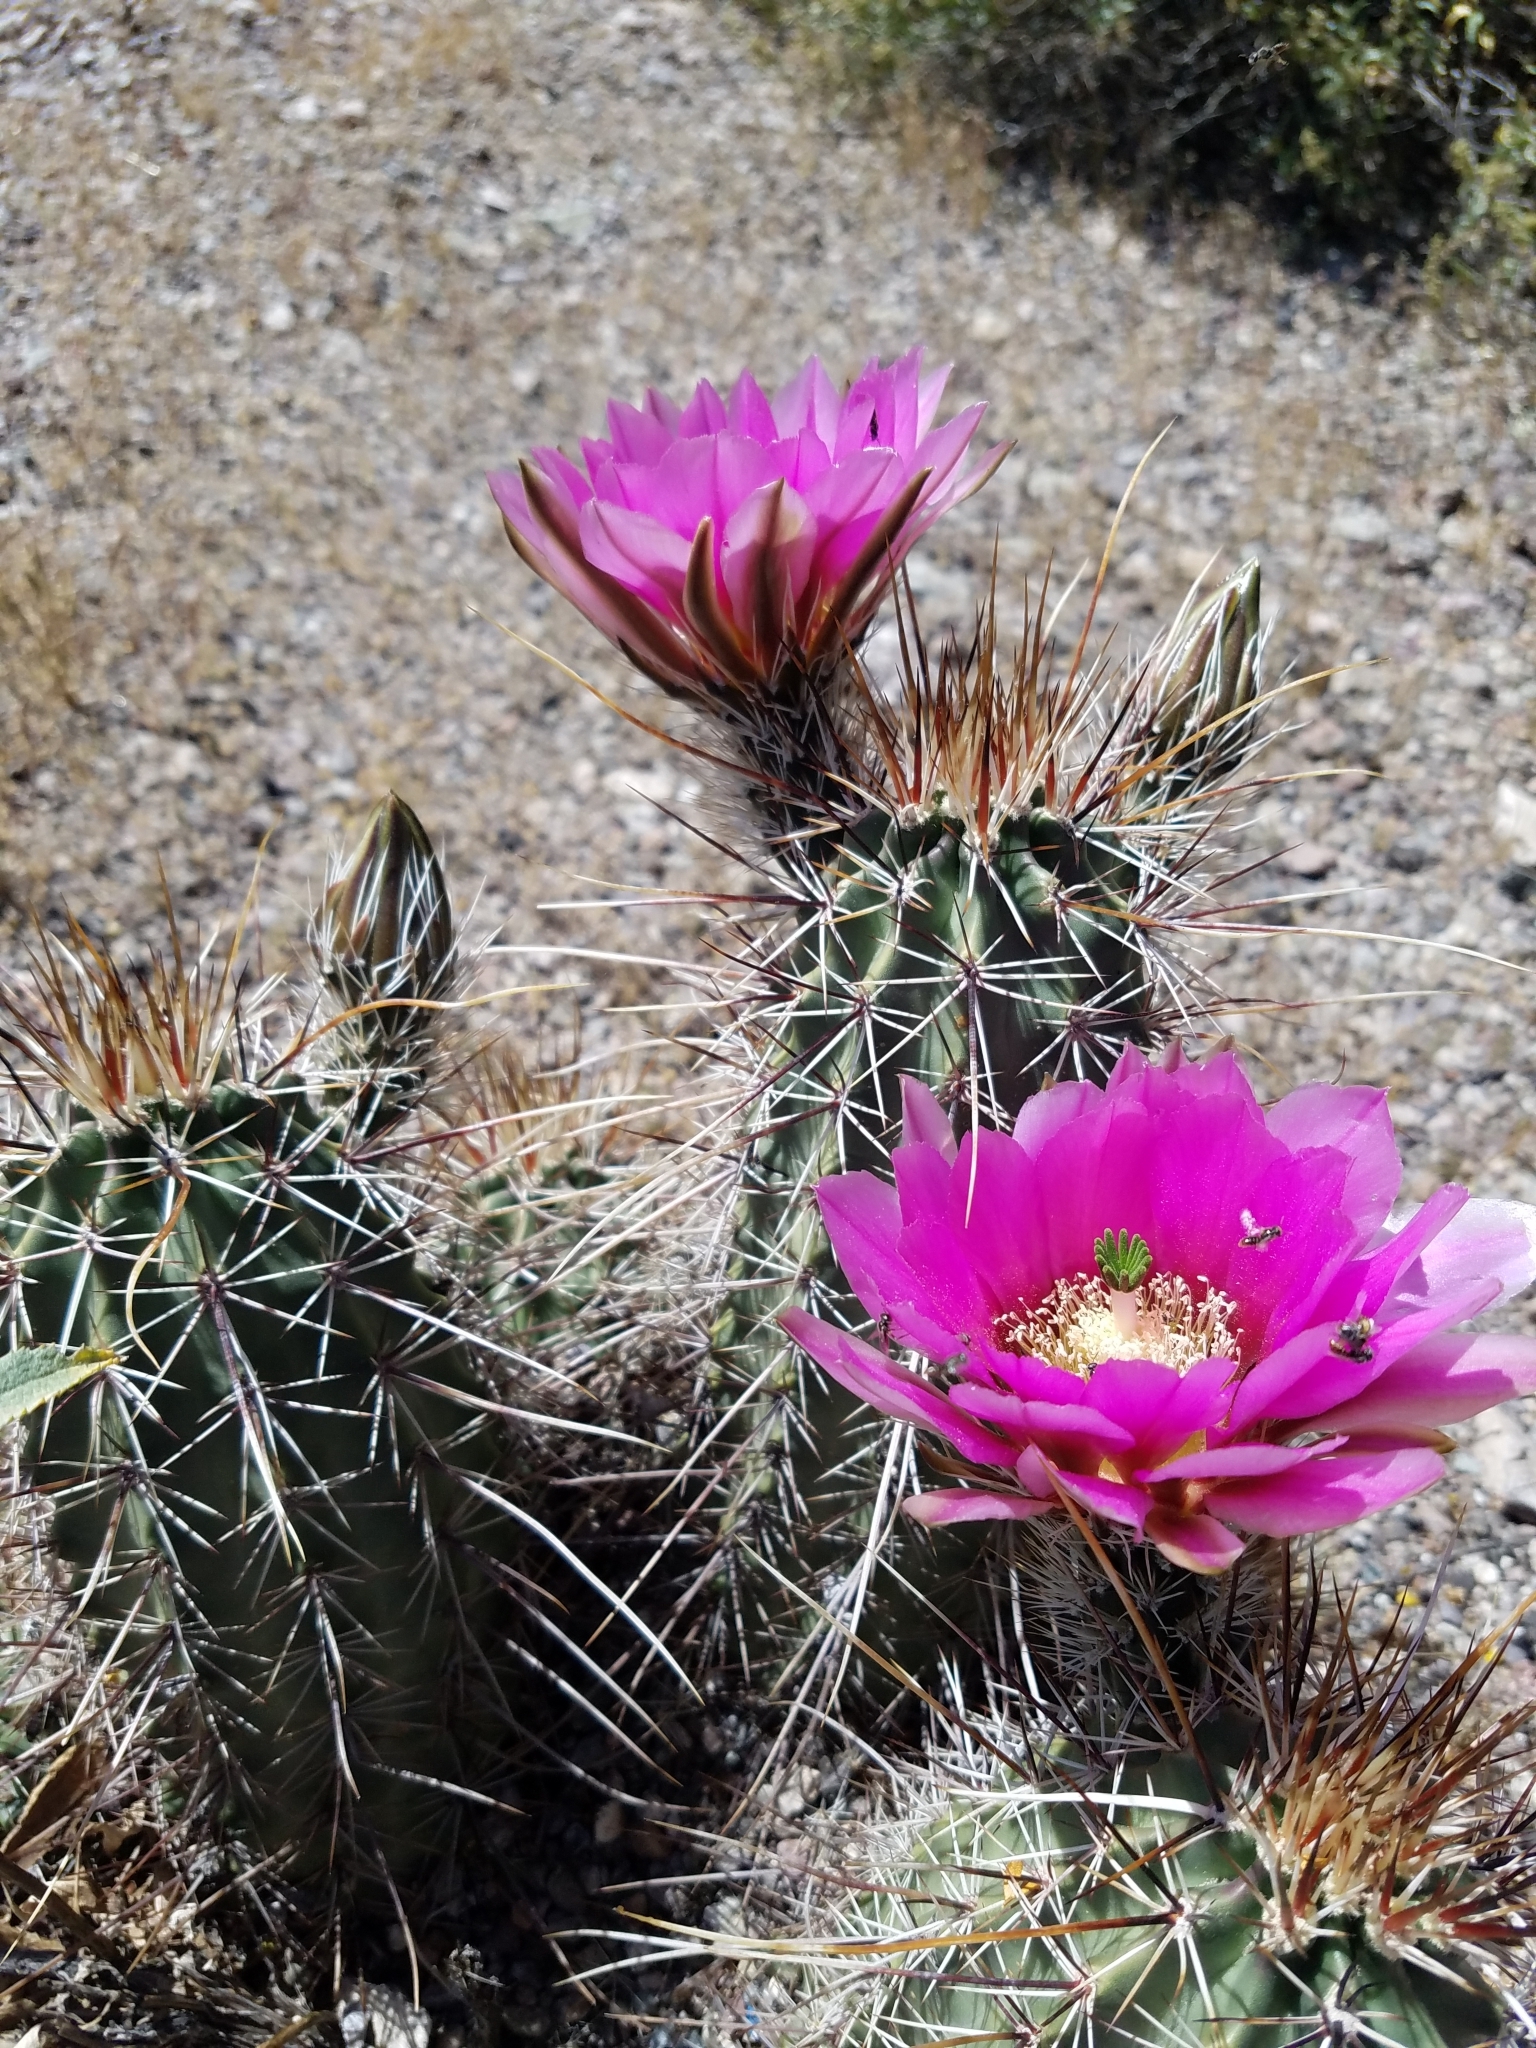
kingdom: Plantae
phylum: Tracheophyta
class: Magnoliopsida
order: Caryophyllales
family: Cactaceae
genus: Echinocereus
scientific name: Echinocereus engelmannii
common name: Engelmann's hedgehog cactus
